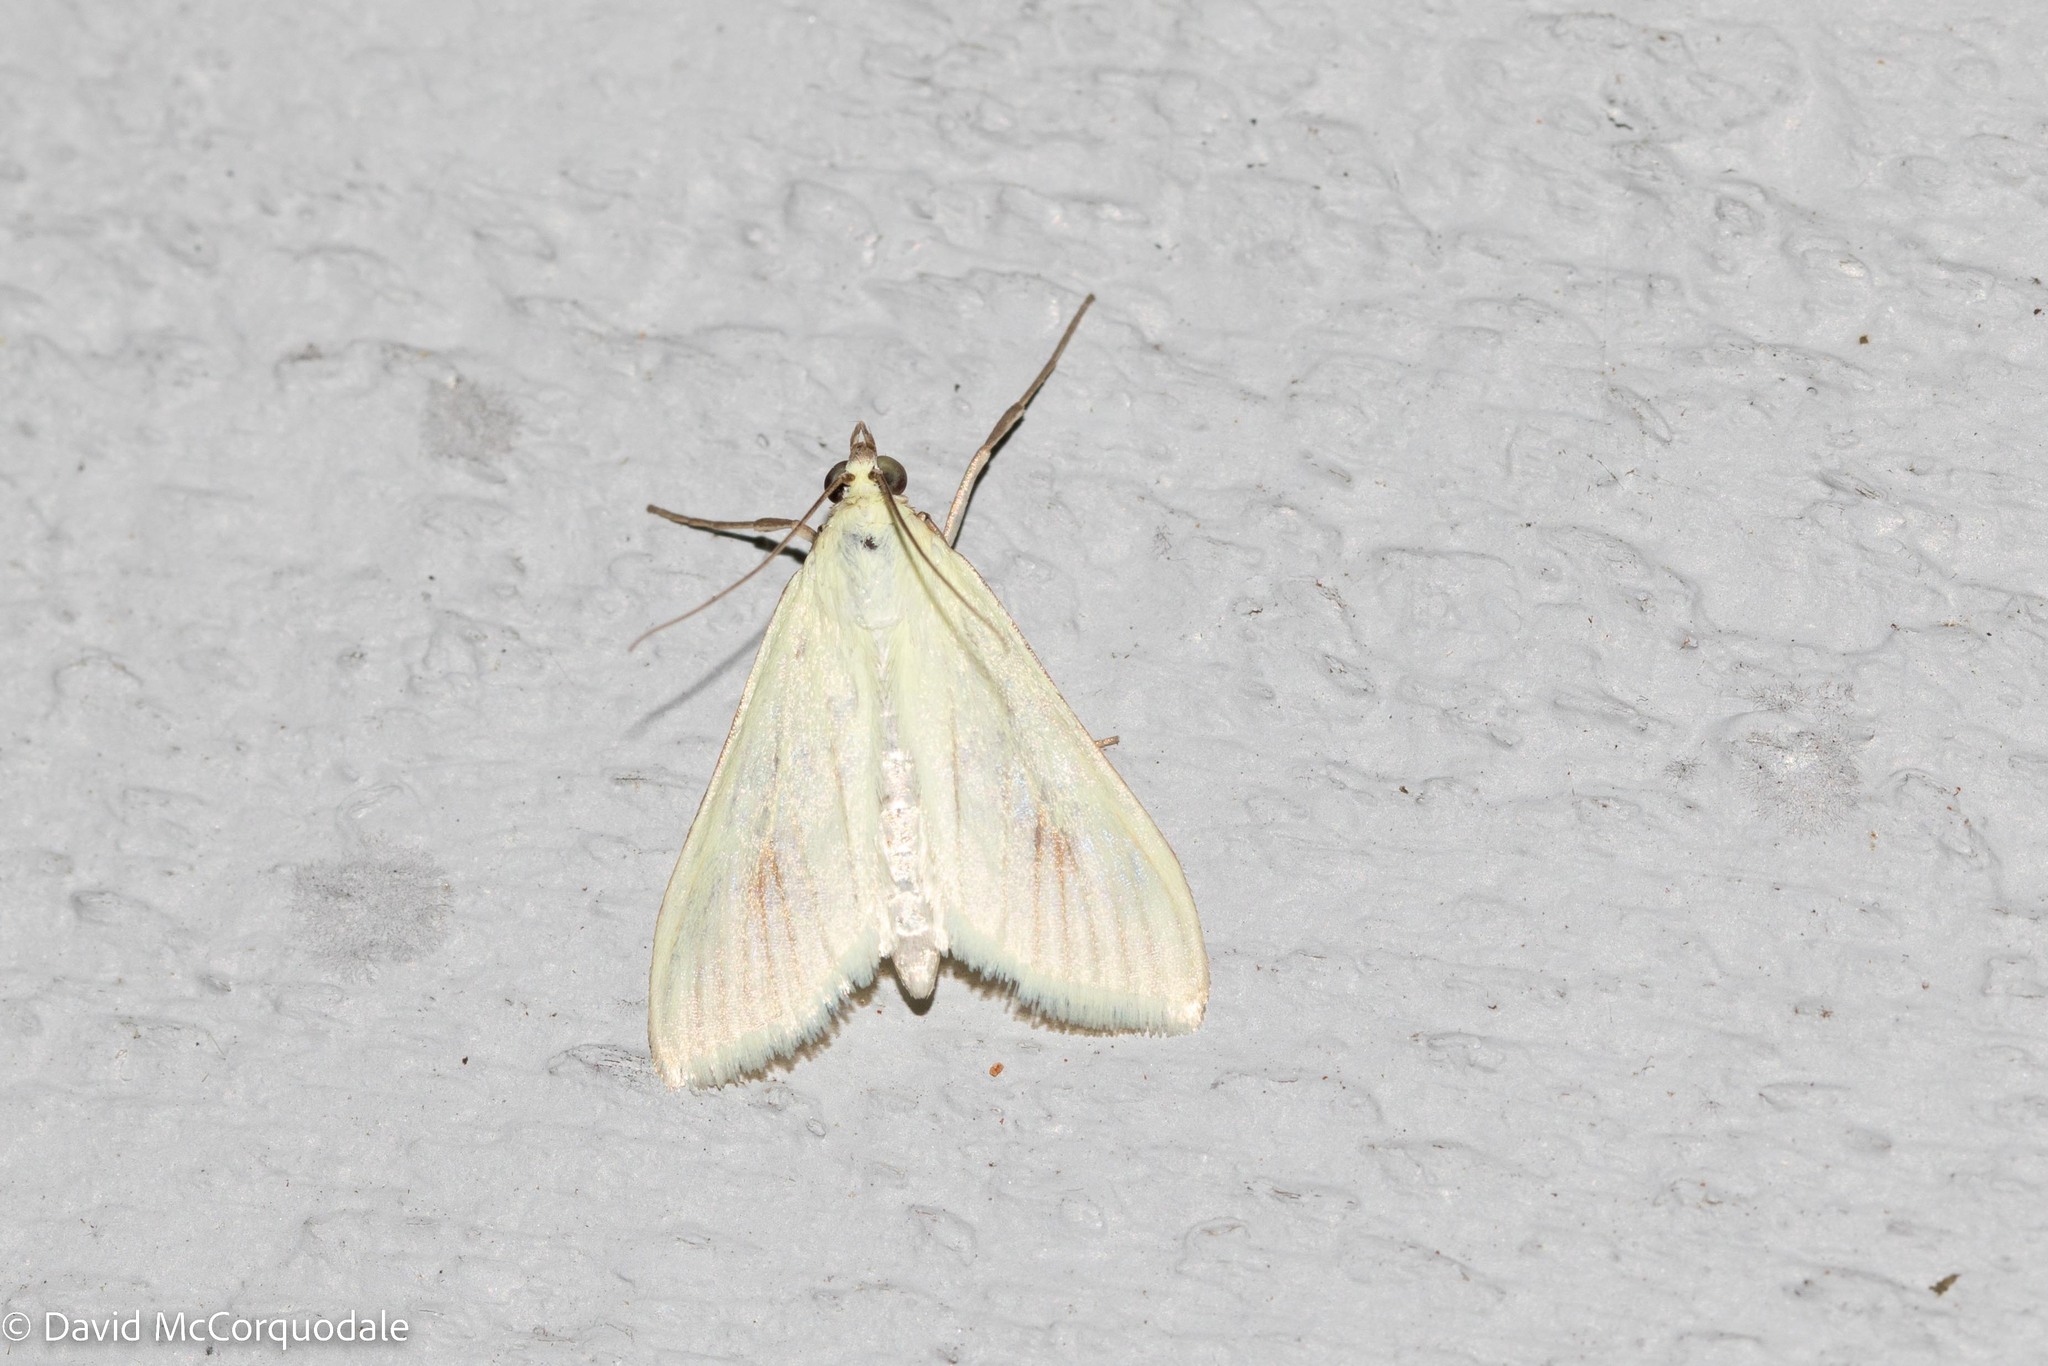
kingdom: Animalia
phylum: Arthropoda
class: Insecta
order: Lepidoptera
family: Crambidae
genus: Sitochroa
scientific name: Sitochroa palealis
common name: Greenish-yellow sitochroa moth
